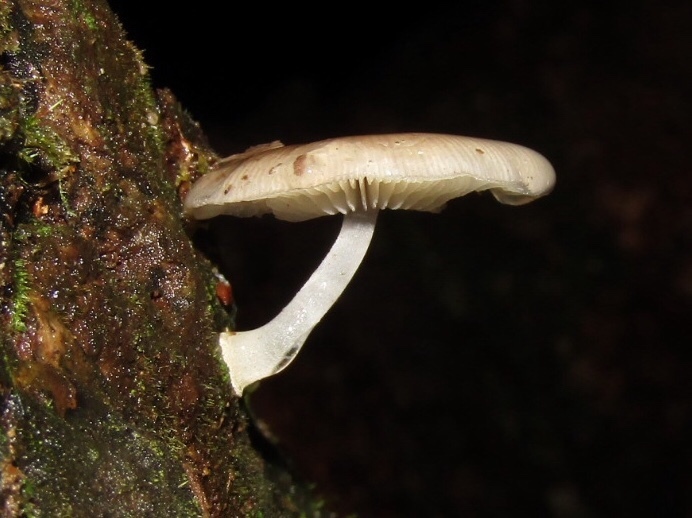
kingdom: Fungi
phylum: Basidiomycota
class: Agaricomycetes
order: Agaricales
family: Mycenaceae
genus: Mycena
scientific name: Mycena chlorophos
